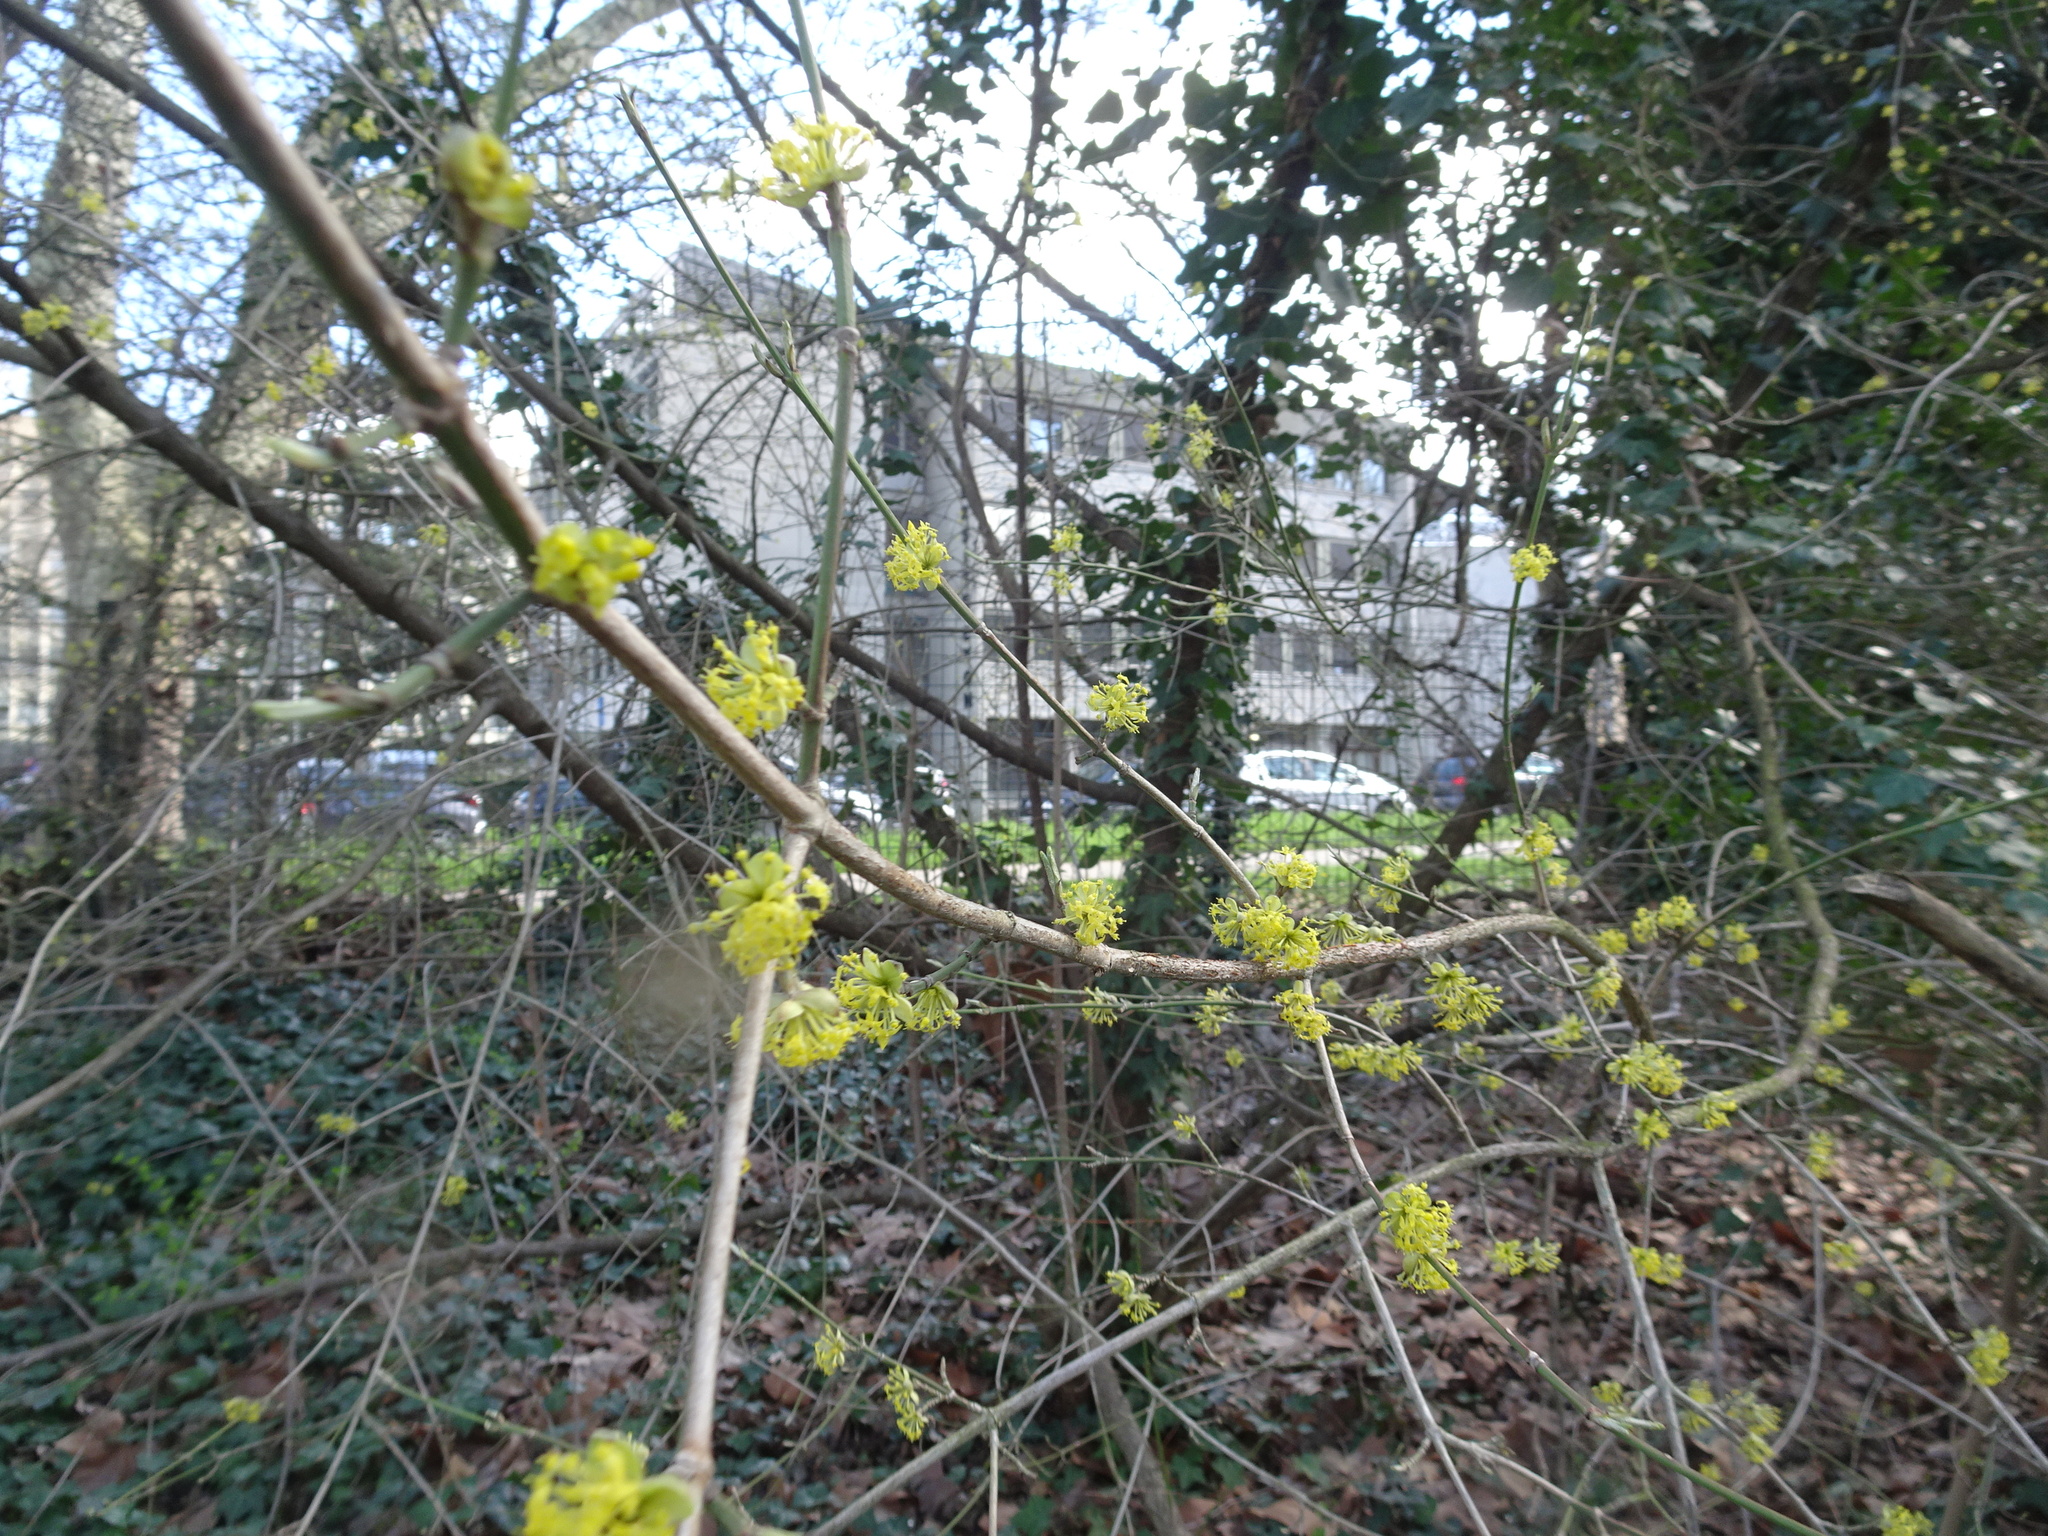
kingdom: Plantae
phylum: Tracheophyta
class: Magnoliopsida
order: Cornales
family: Cornaceae
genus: Cornus
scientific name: Cornus mas
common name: Cornelian-cherry
